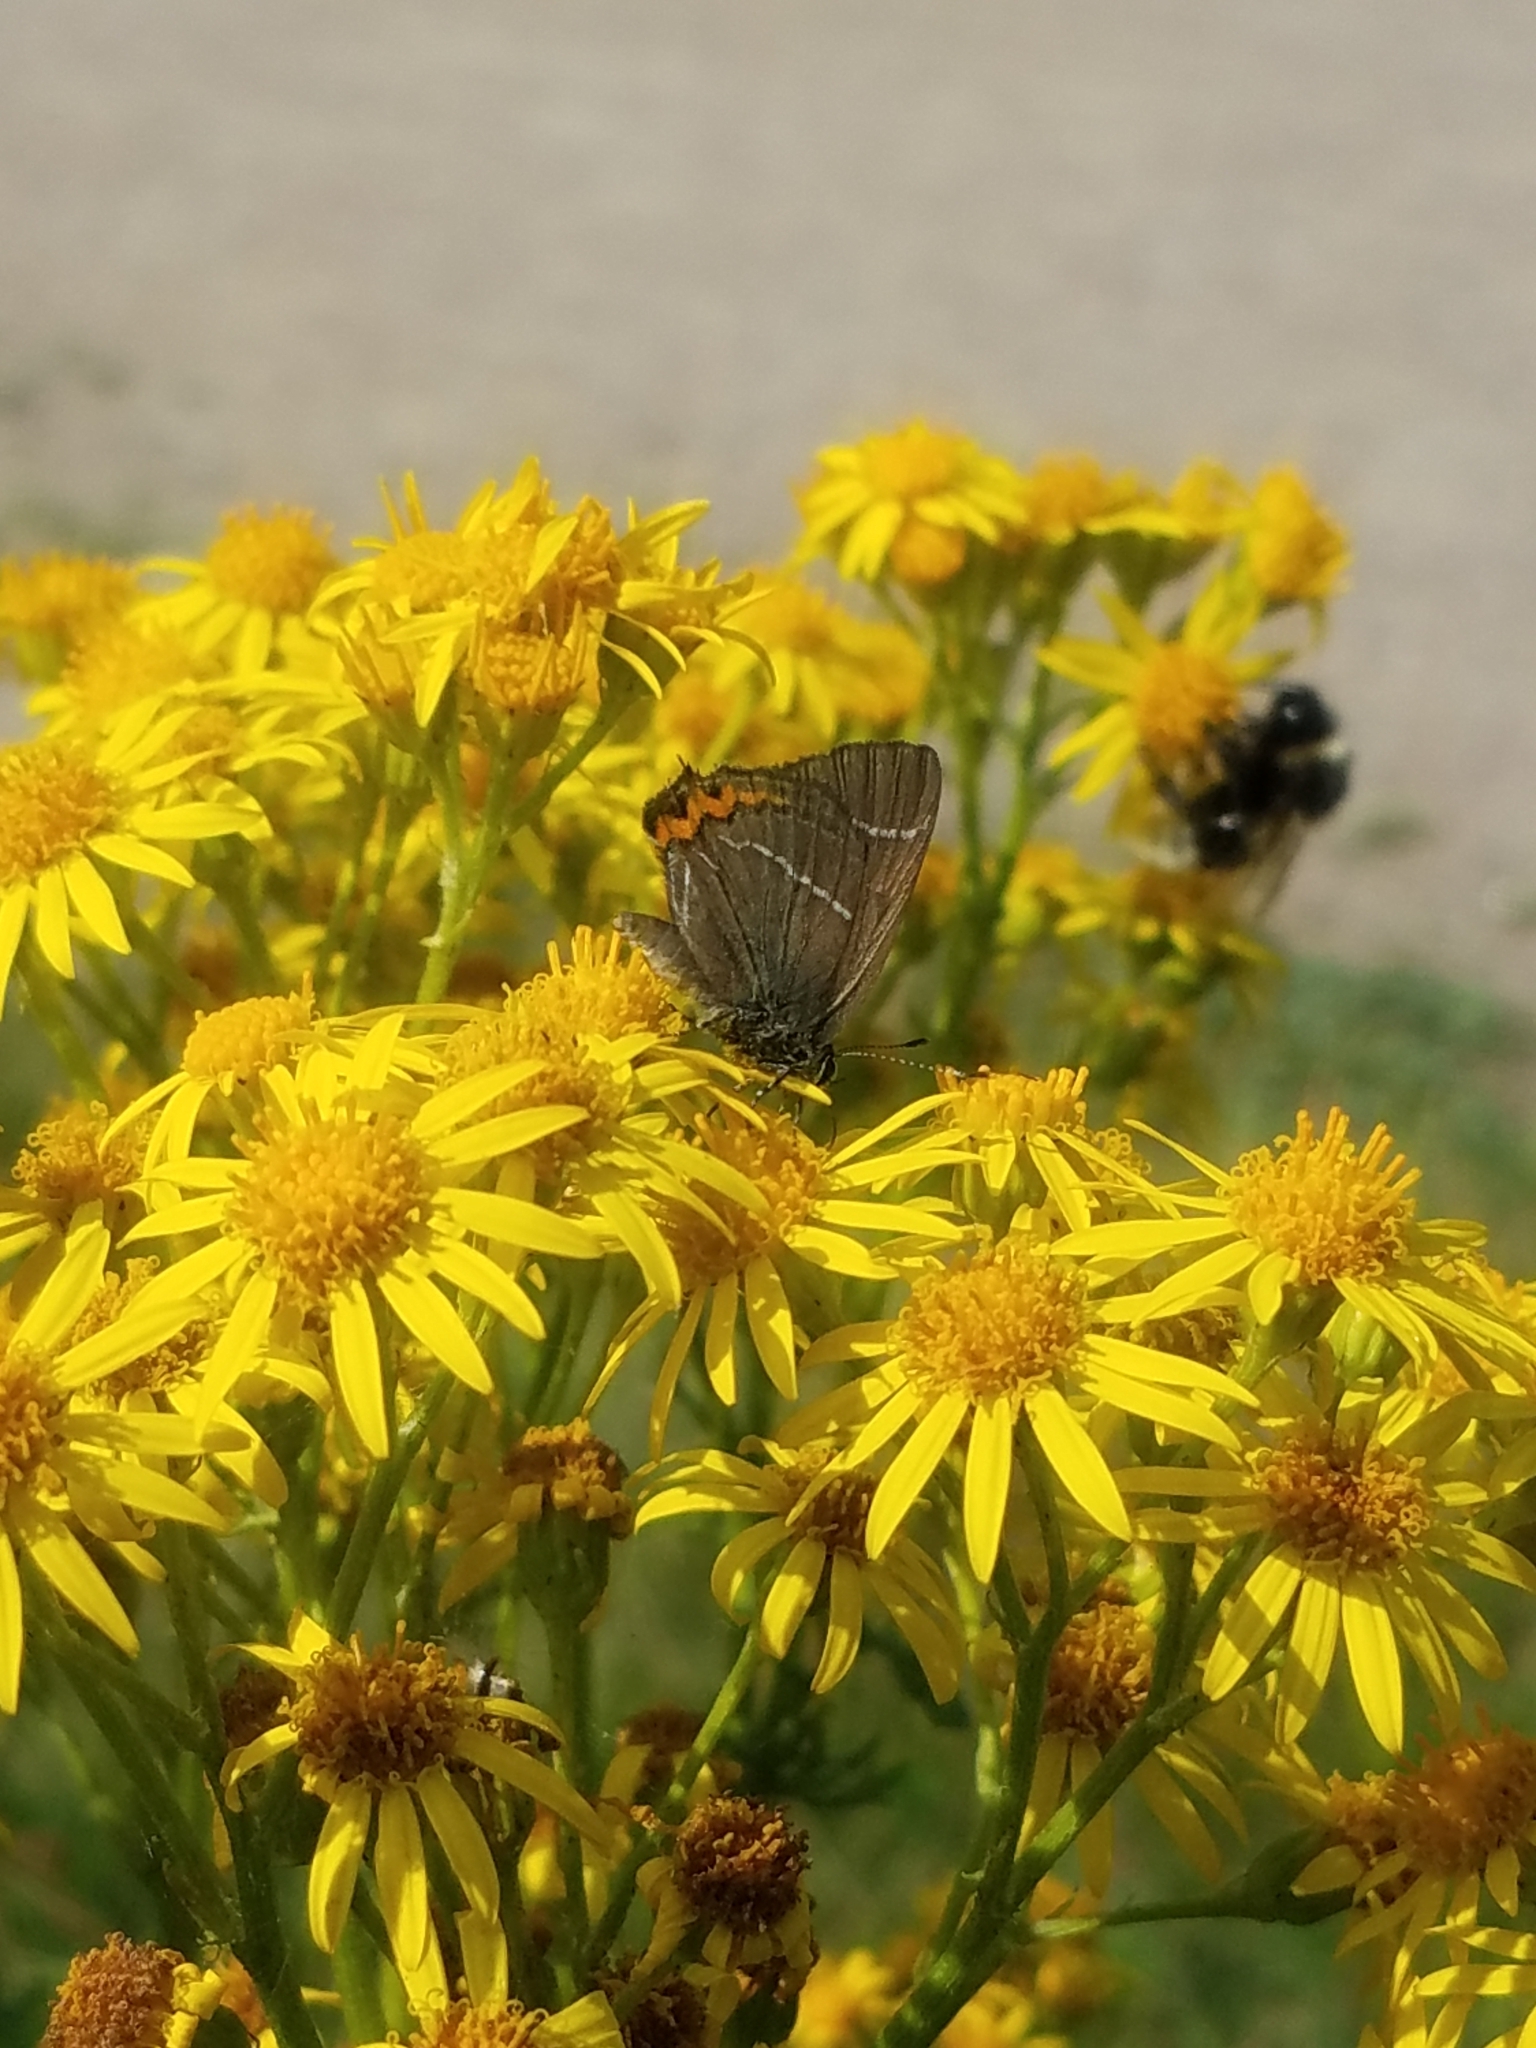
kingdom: Animalia
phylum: Arthropoda
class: Insecta
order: Lepidoptera
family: Lycaenidae
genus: Satyrium
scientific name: Satyrium w-album
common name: White-letter hairstreak
